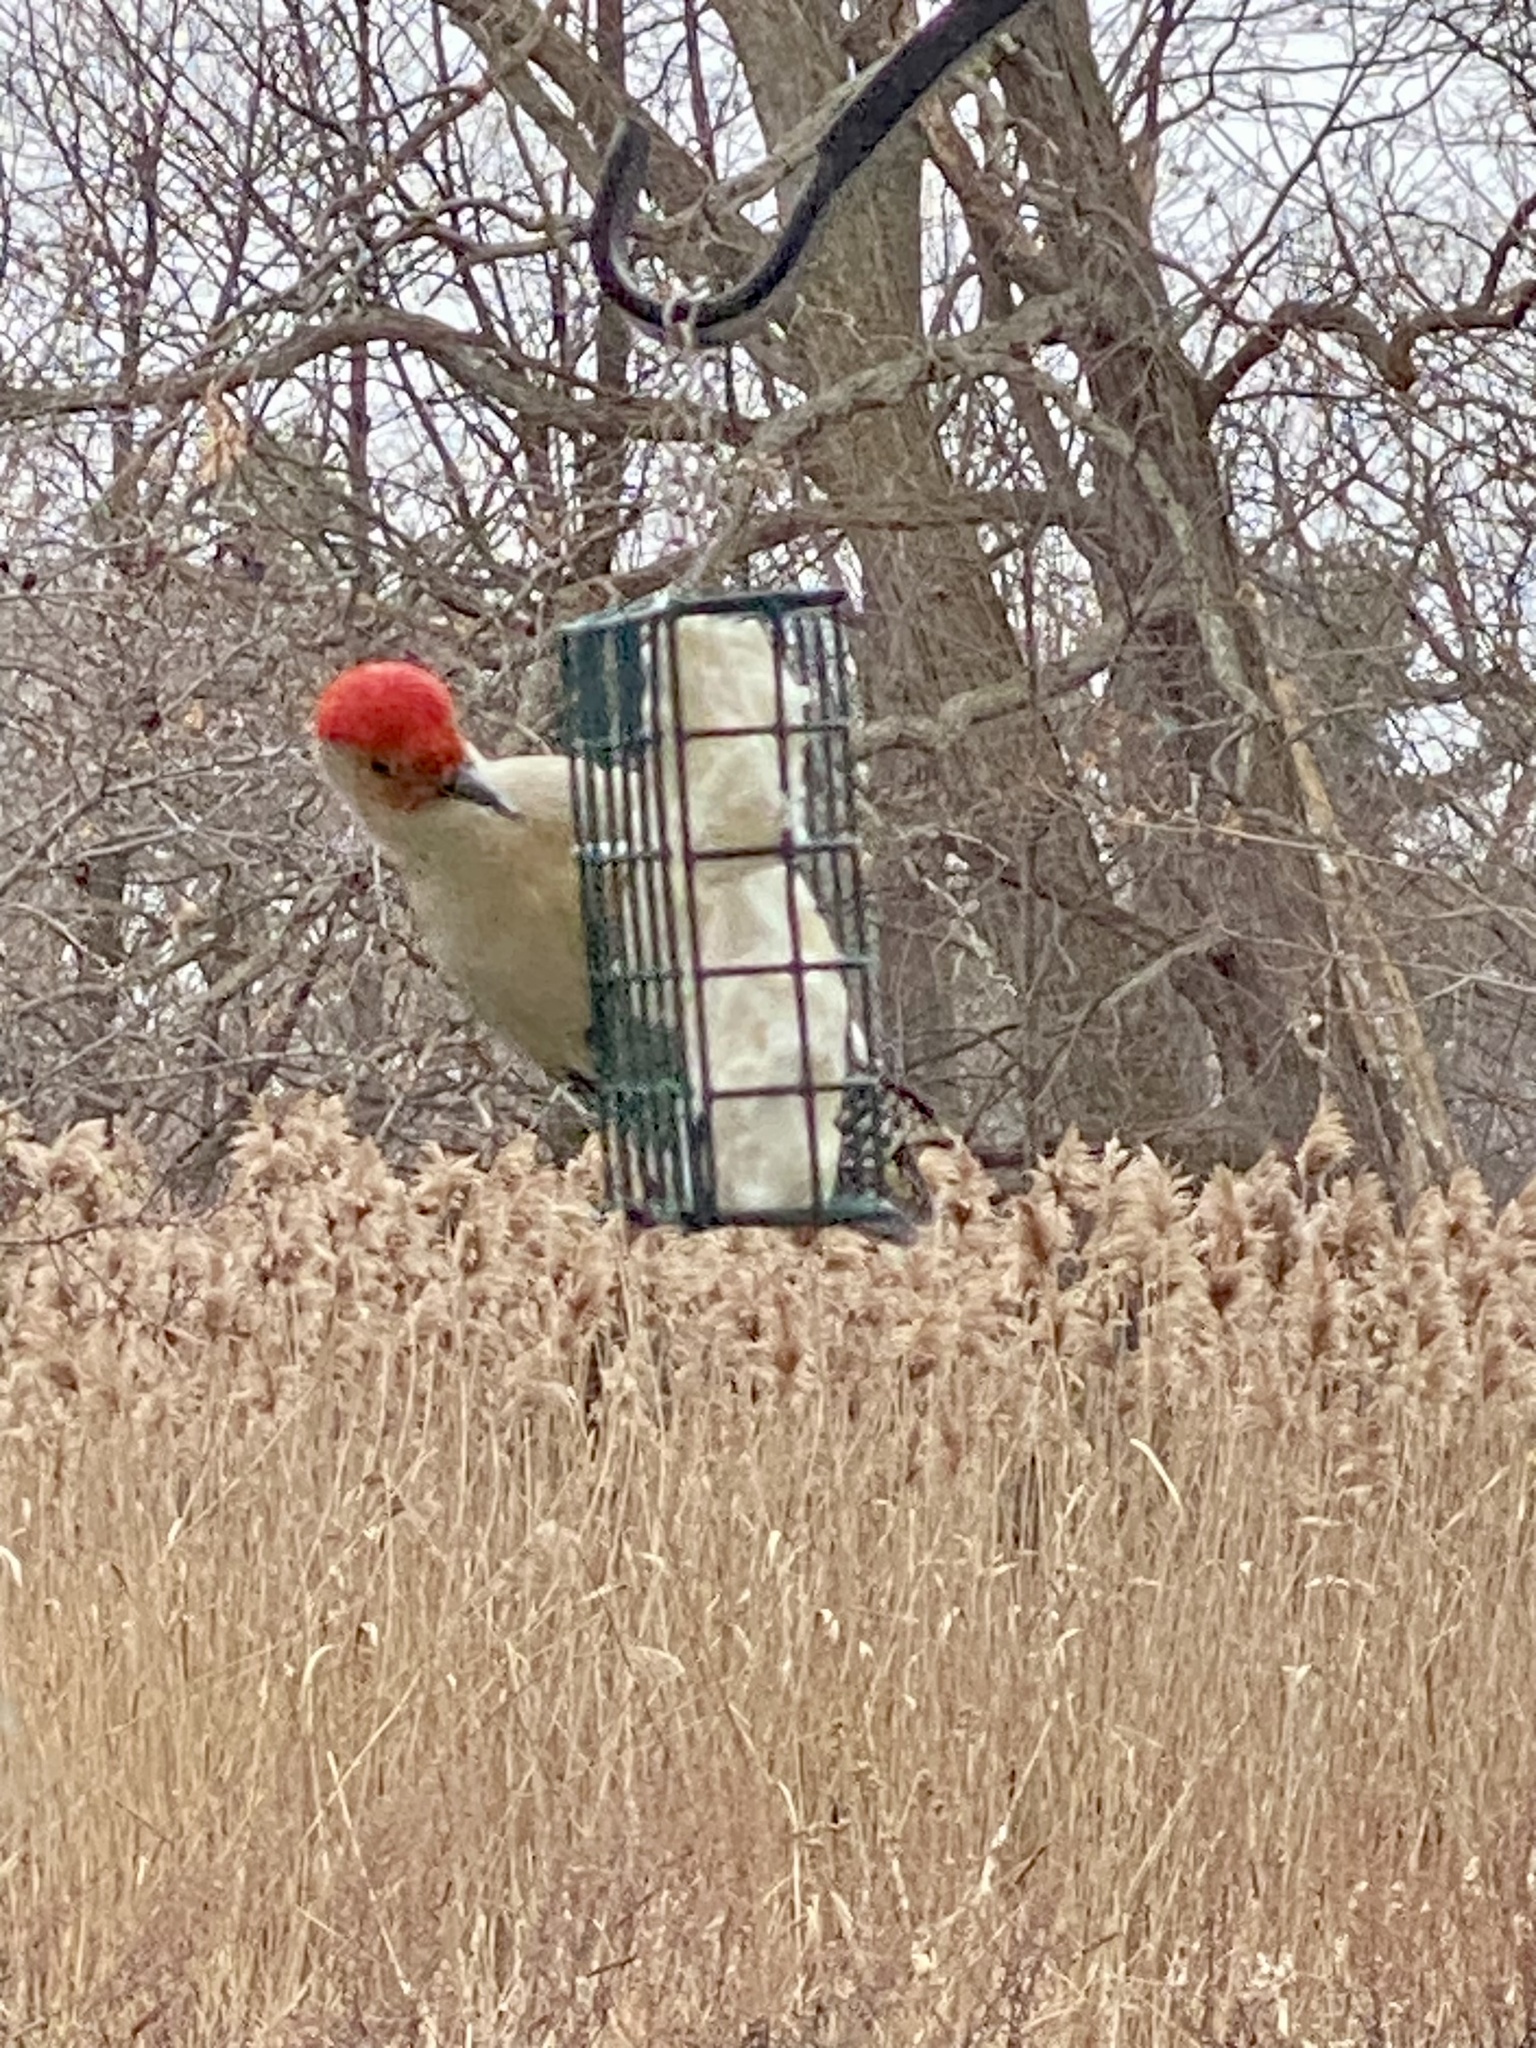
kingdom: Animalia
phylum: Chordata
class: Aves
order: Piciformes
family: Picidae
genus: Melanerpes
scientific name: Melanerpes carolinus
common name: Red-bellied woodpecker
